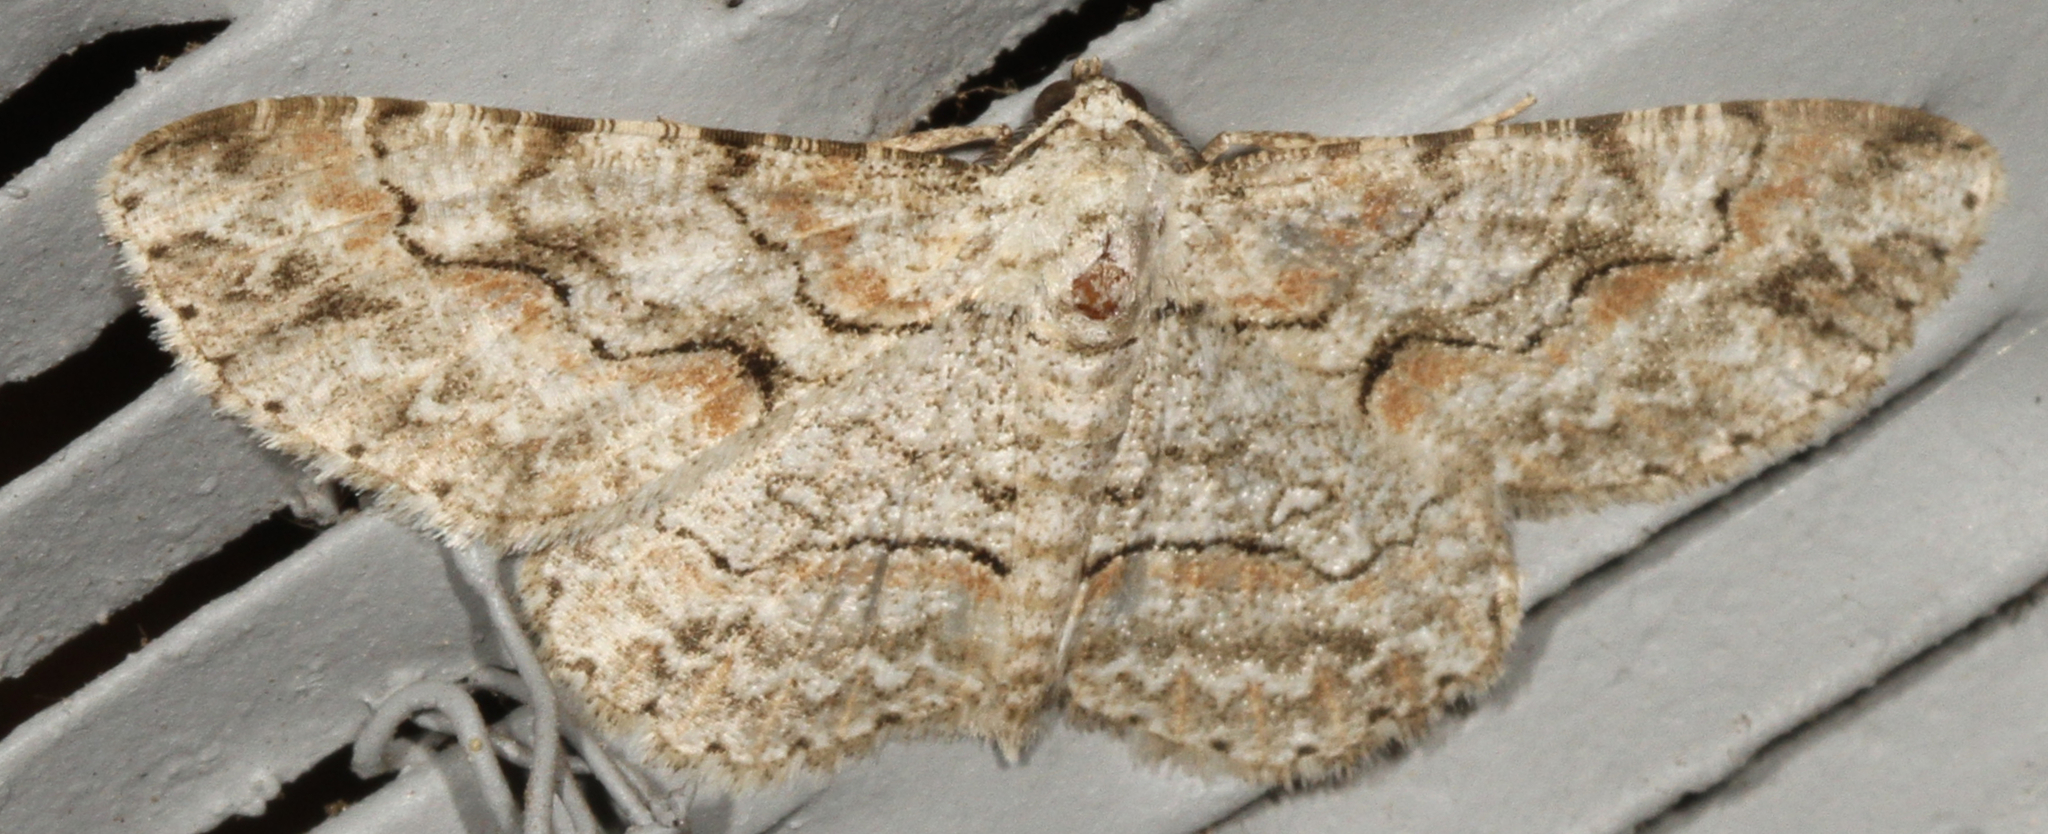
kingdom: Animalia
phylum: Arthropoda
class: Insecta
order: Lepidoptera
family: Geometridae
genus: Iridopsis
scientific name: Iridopsis defectaria
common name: Brown-shaded gray
